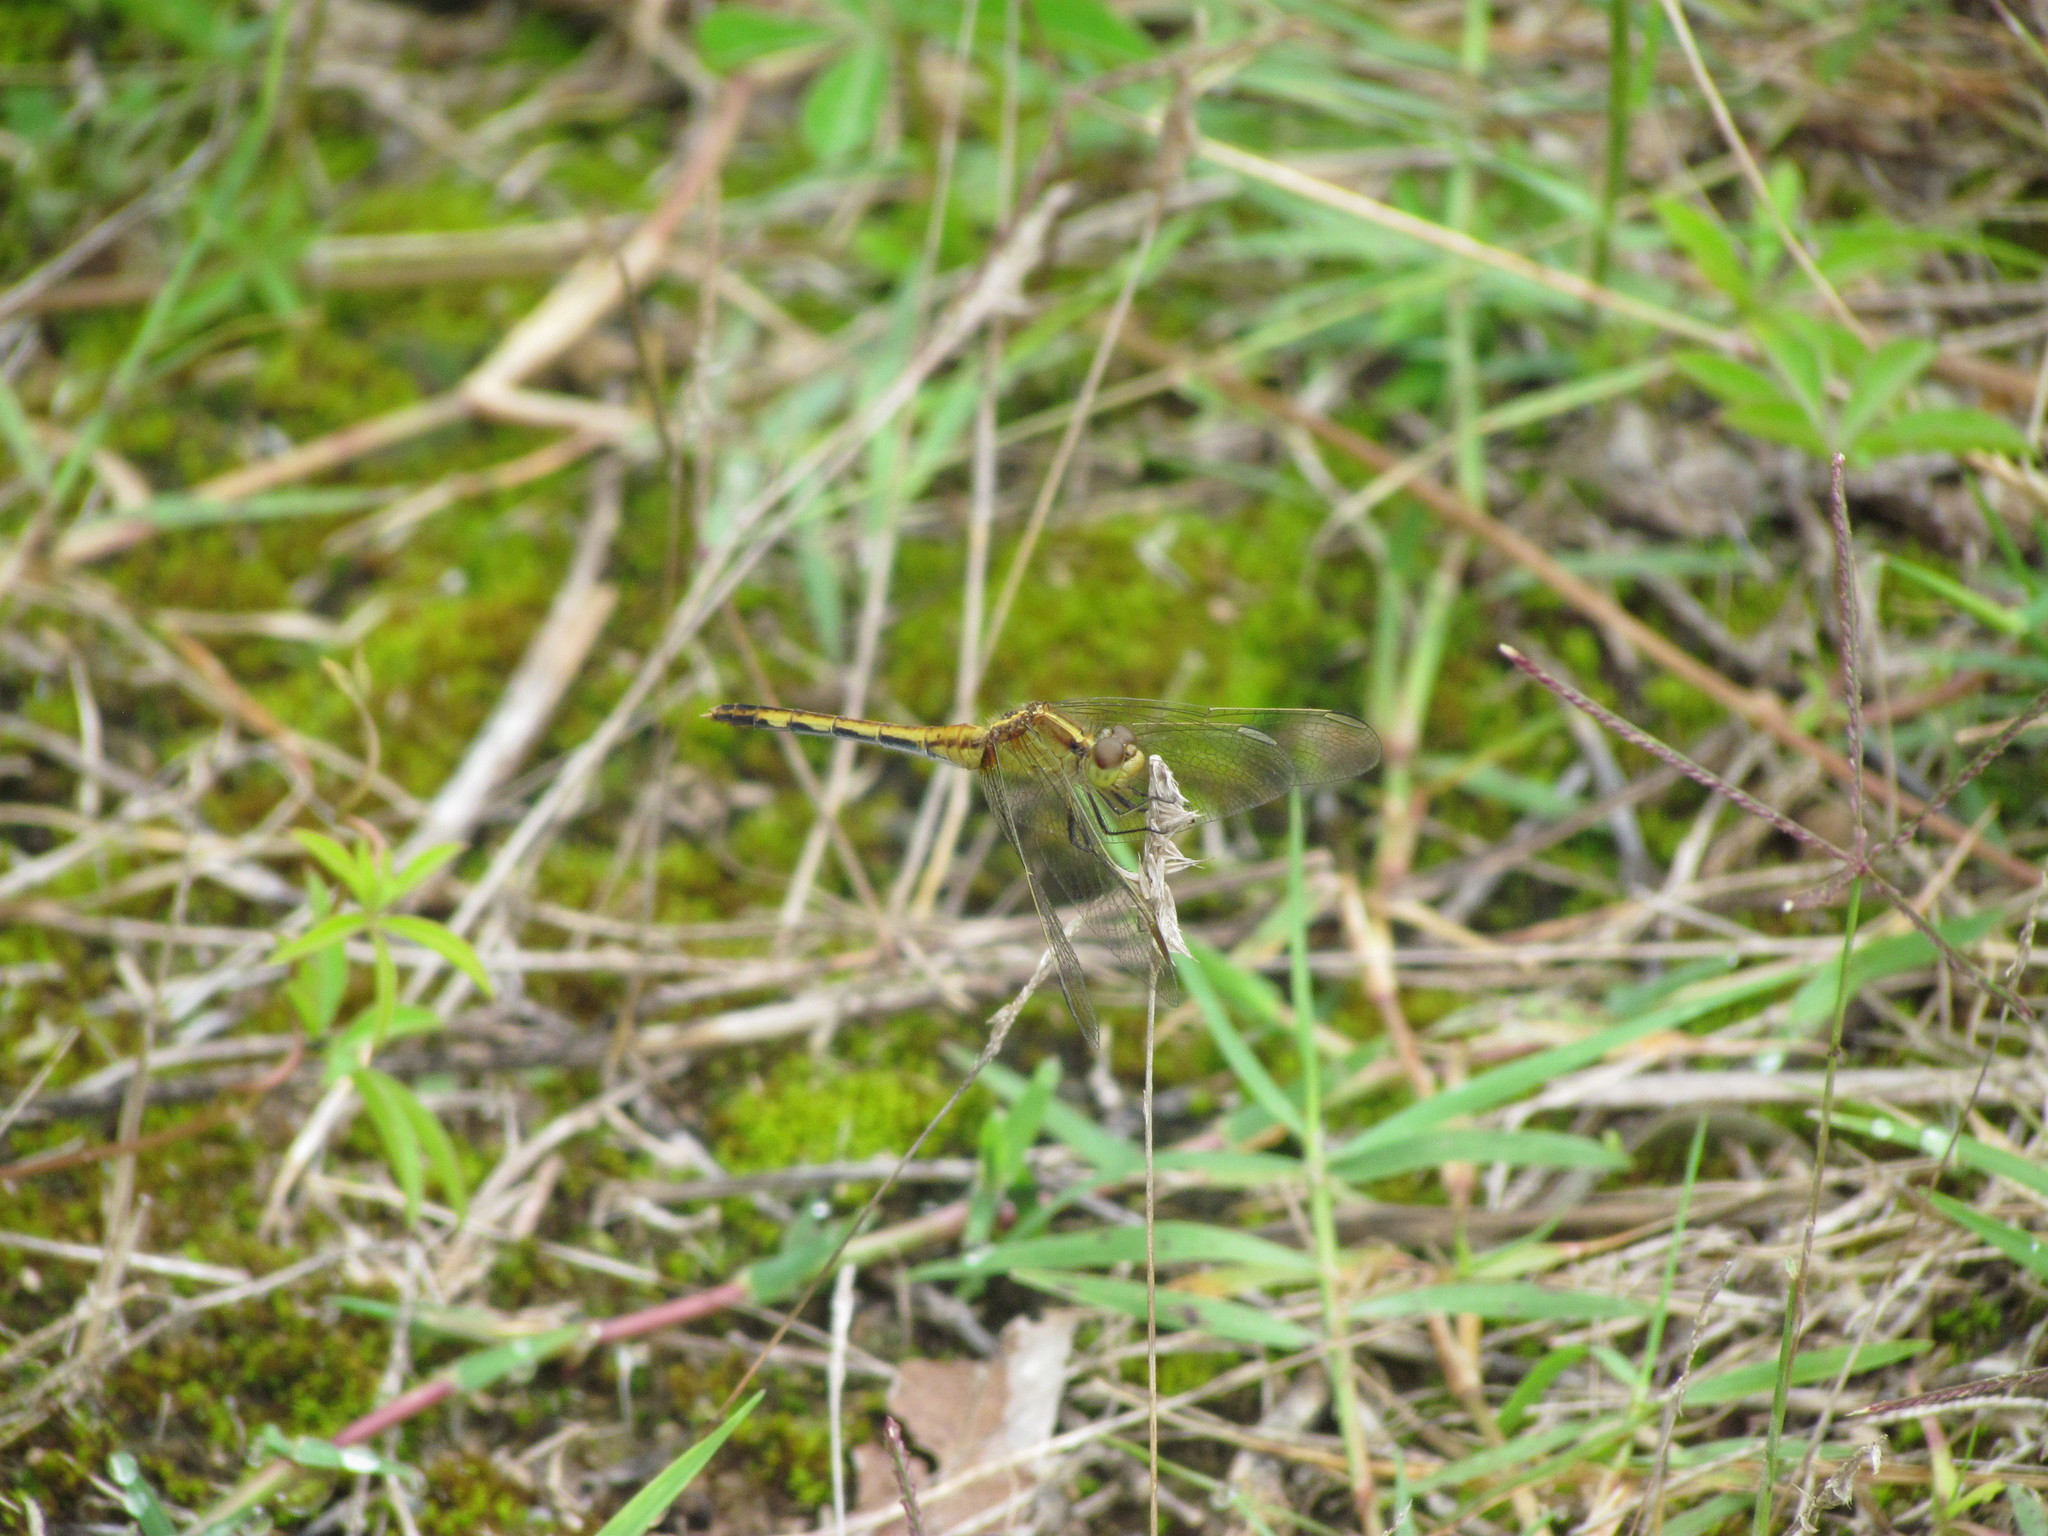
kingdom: Animalia
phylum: Arthropoda
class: Insecta
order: Odonata
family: Libellulidae
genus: Erythrodiplax
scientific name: Erythrodiplax nigricans
